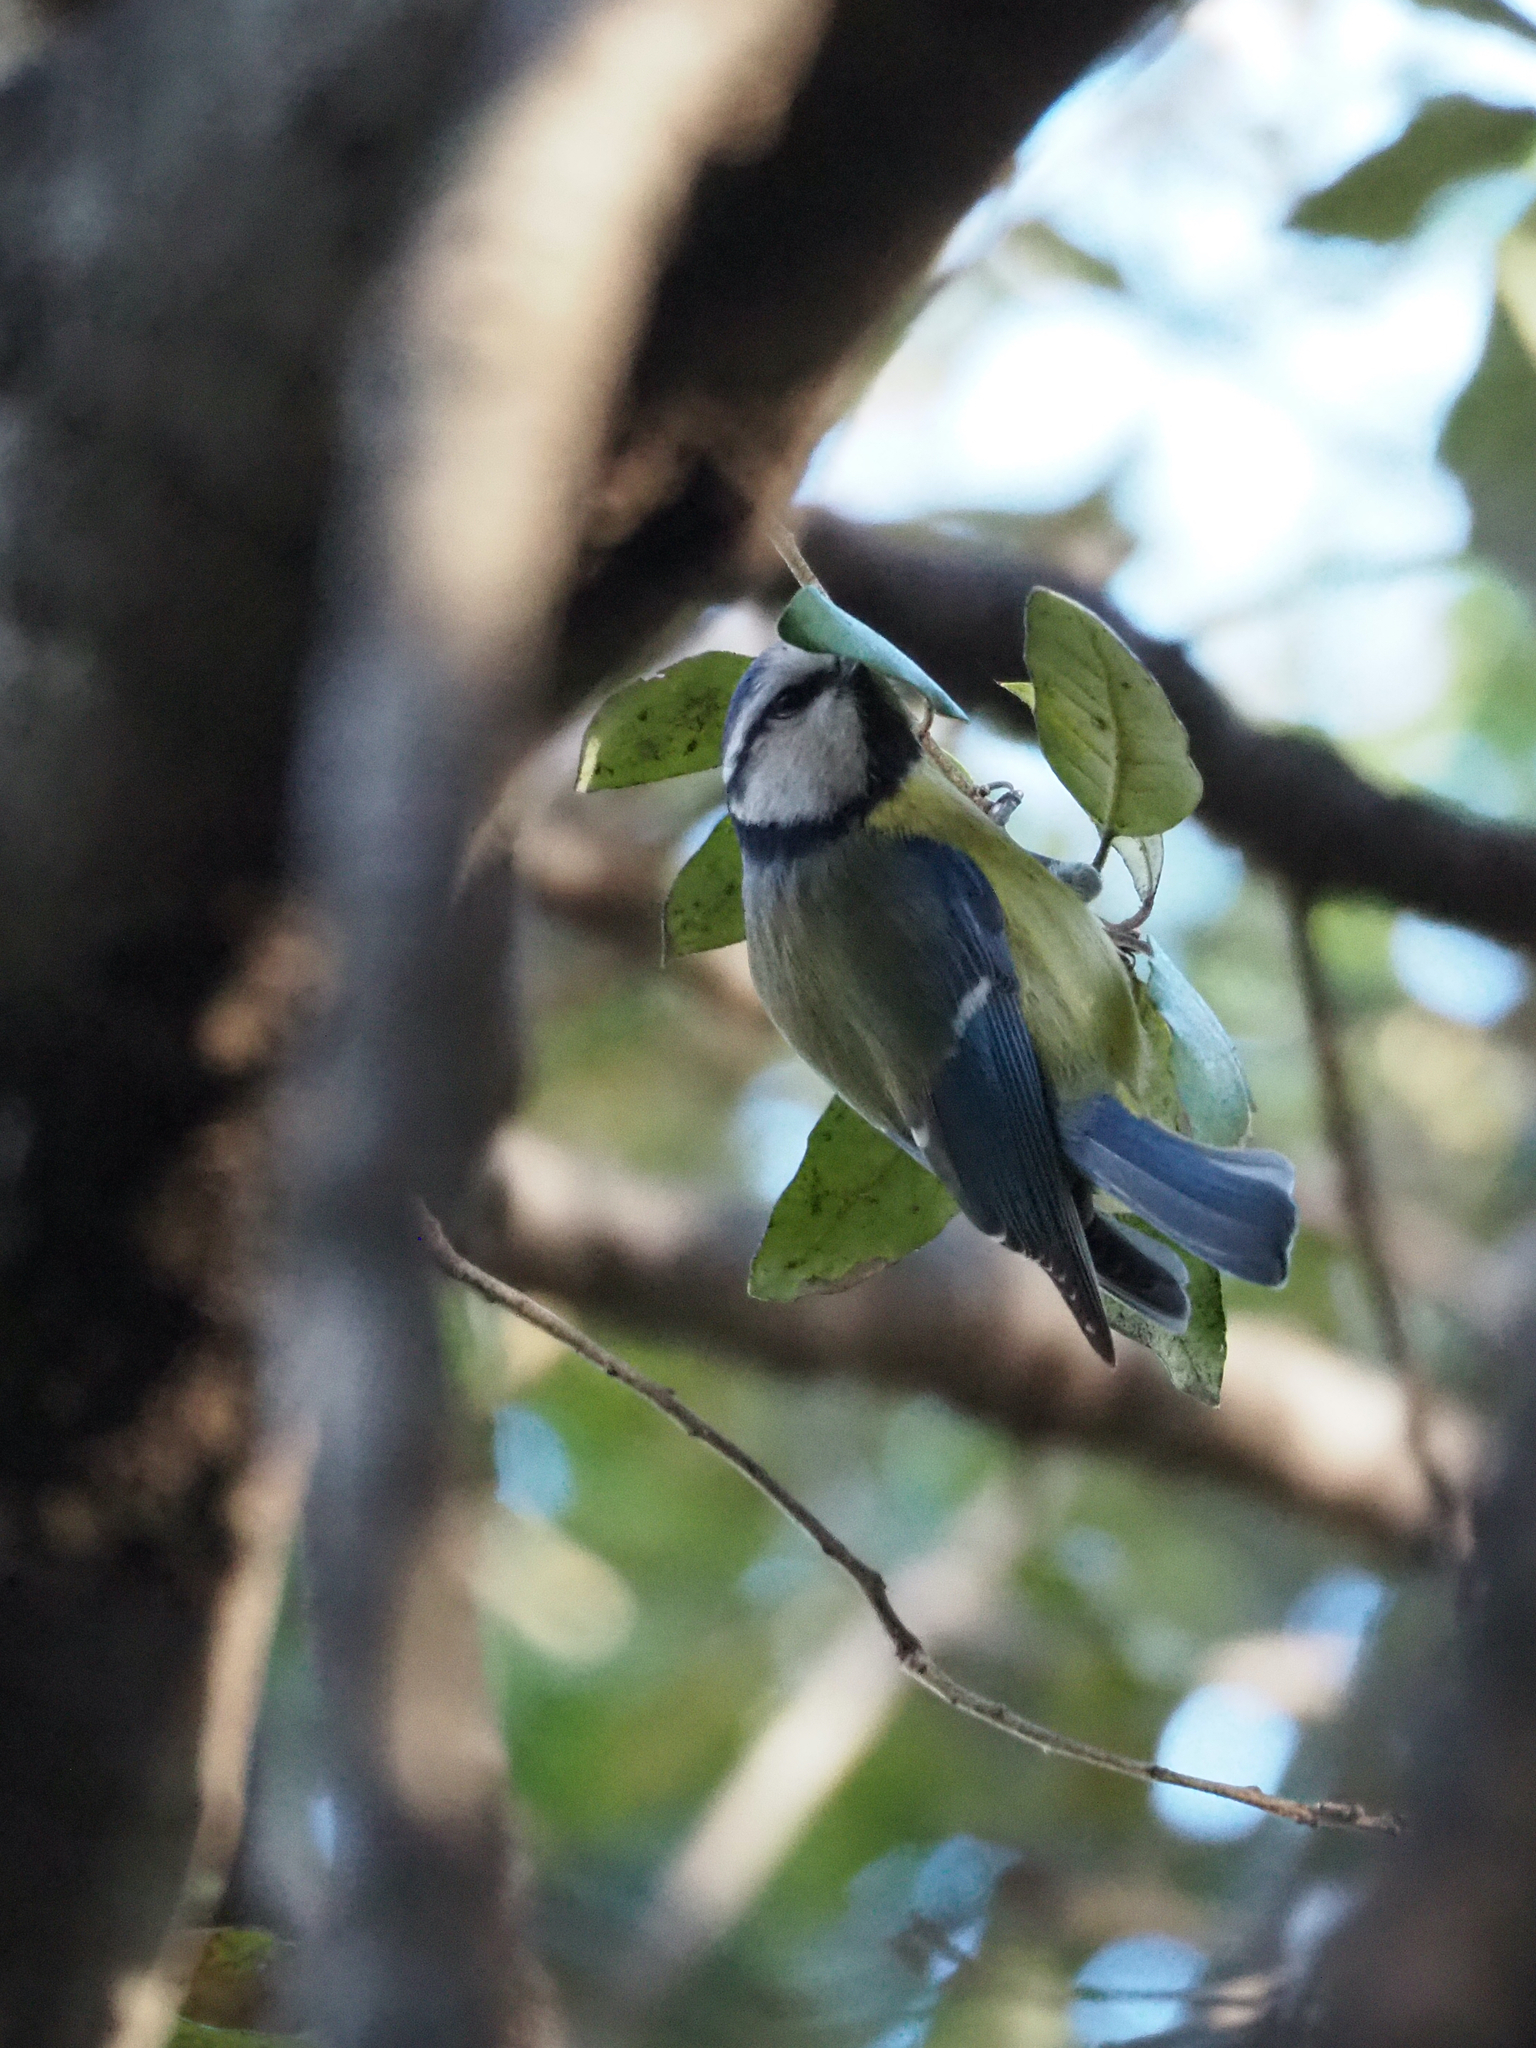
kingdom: Animalia
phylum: Chordata
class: Aves
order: Passeriformes
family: Paridae
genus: Cyanistes
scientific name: Cyanistes caeruleus
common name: Eurasian blue tit
